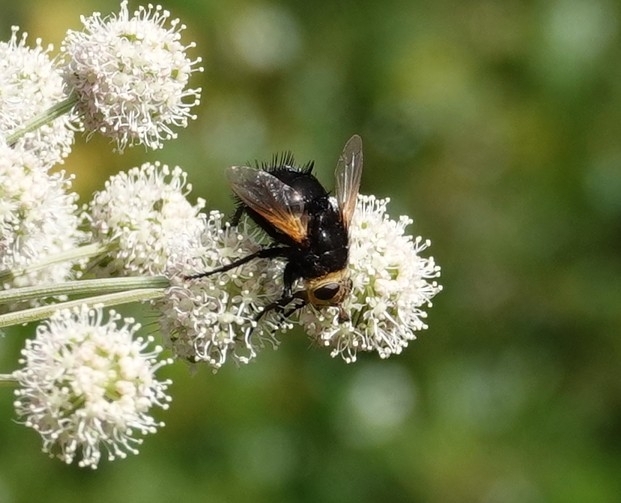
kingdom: Animalia
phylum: Arthropoda
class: Insecta
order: Diptera
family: Tachinidae
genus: Tachina
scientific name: Tachina grossa
